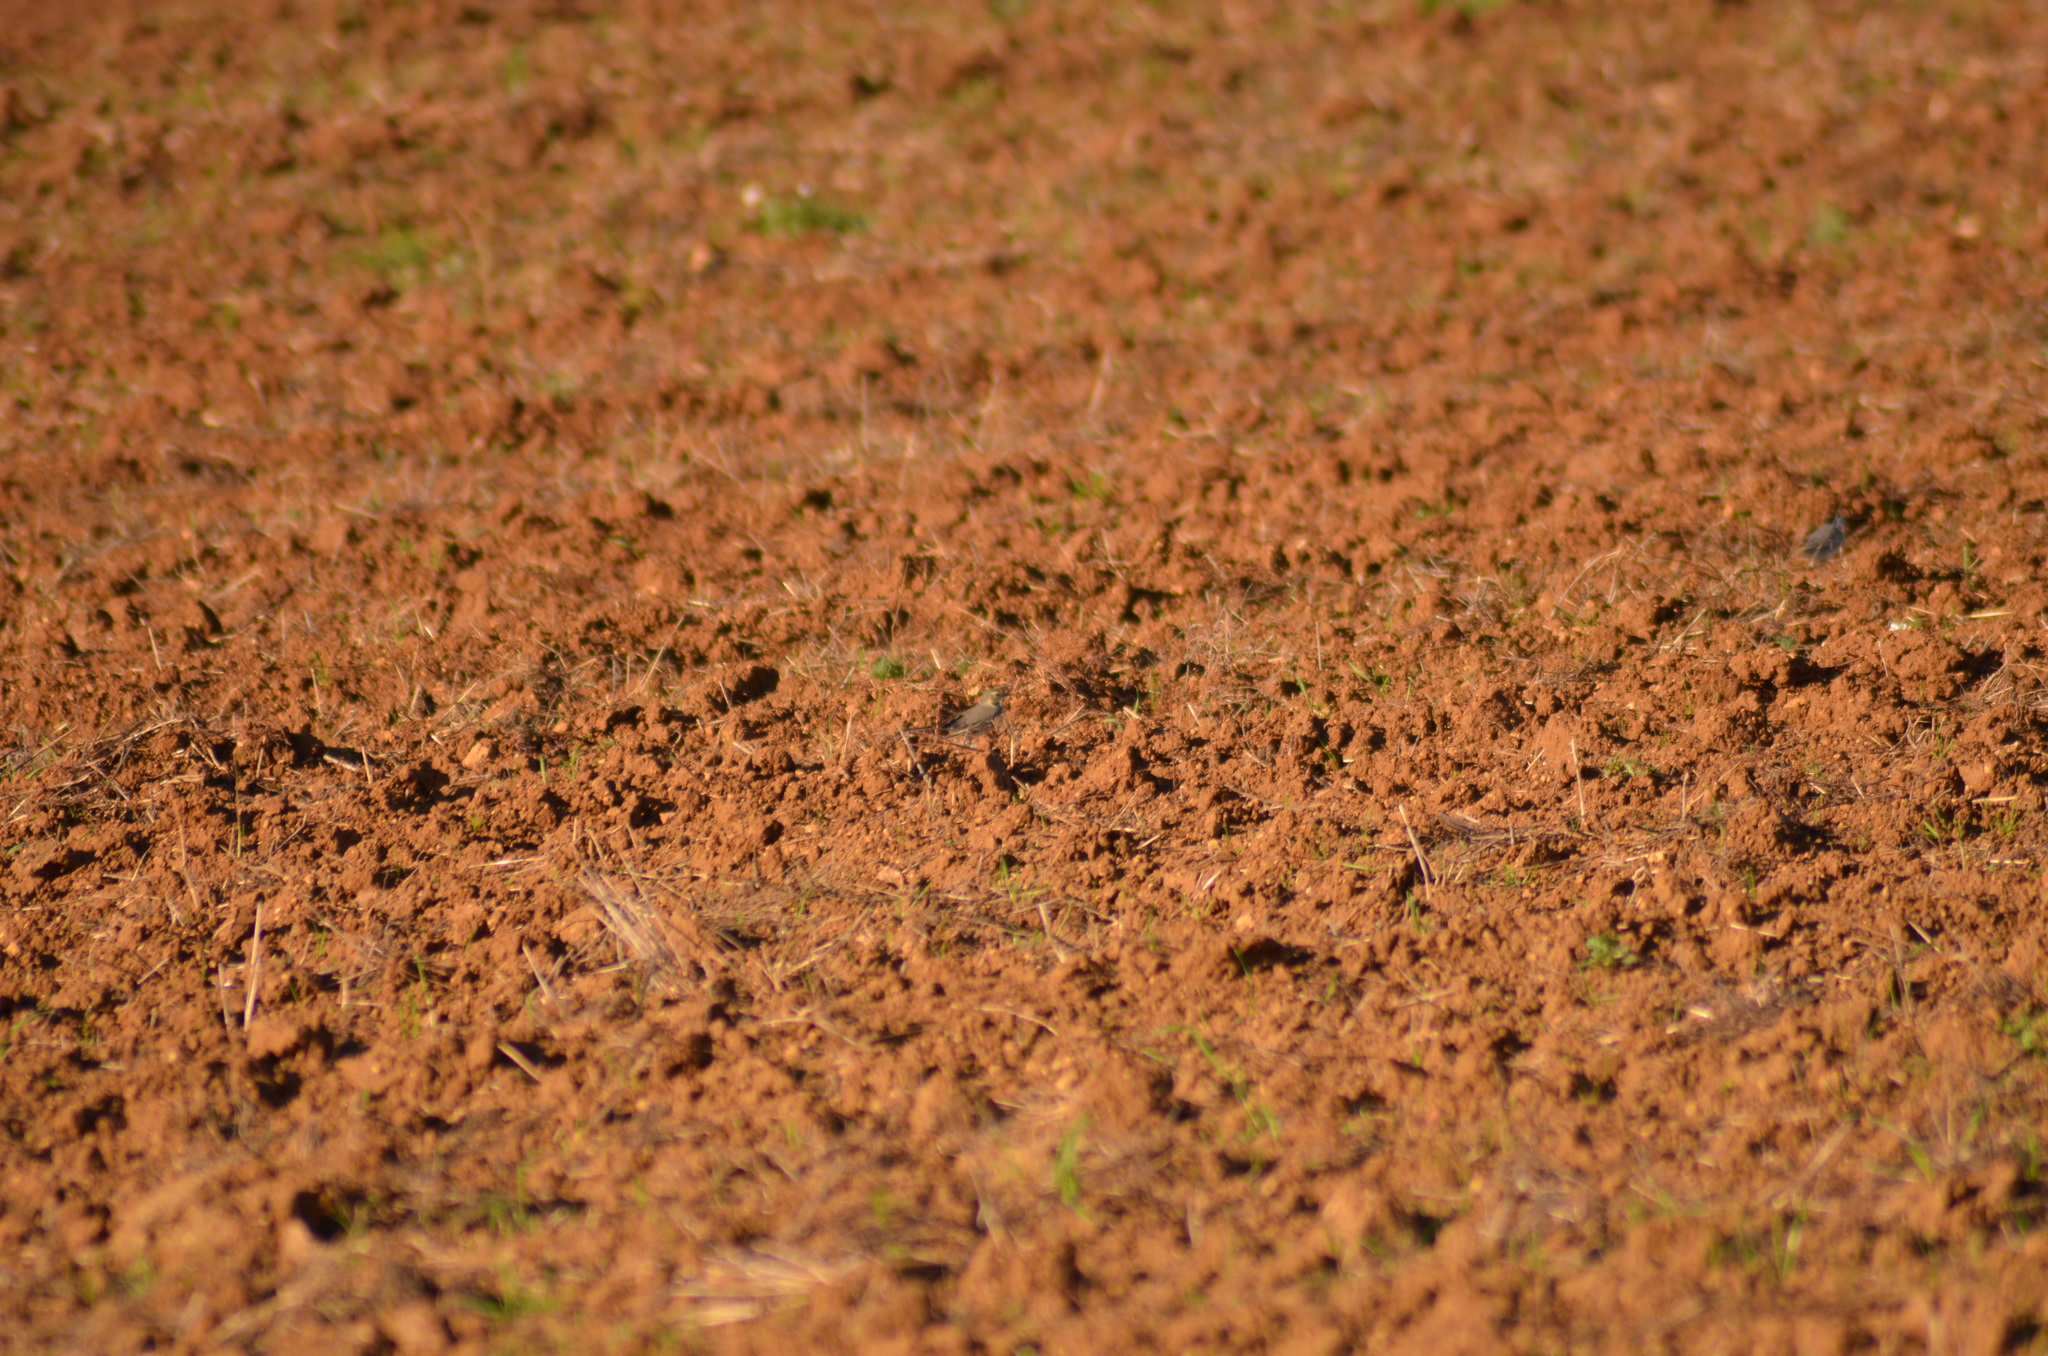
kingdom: Animalia
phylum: Chordata
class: Aves
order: Passeriformes
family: Motacillidae
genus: Motacilla
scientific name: Motacilla alba
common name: White wagtail
